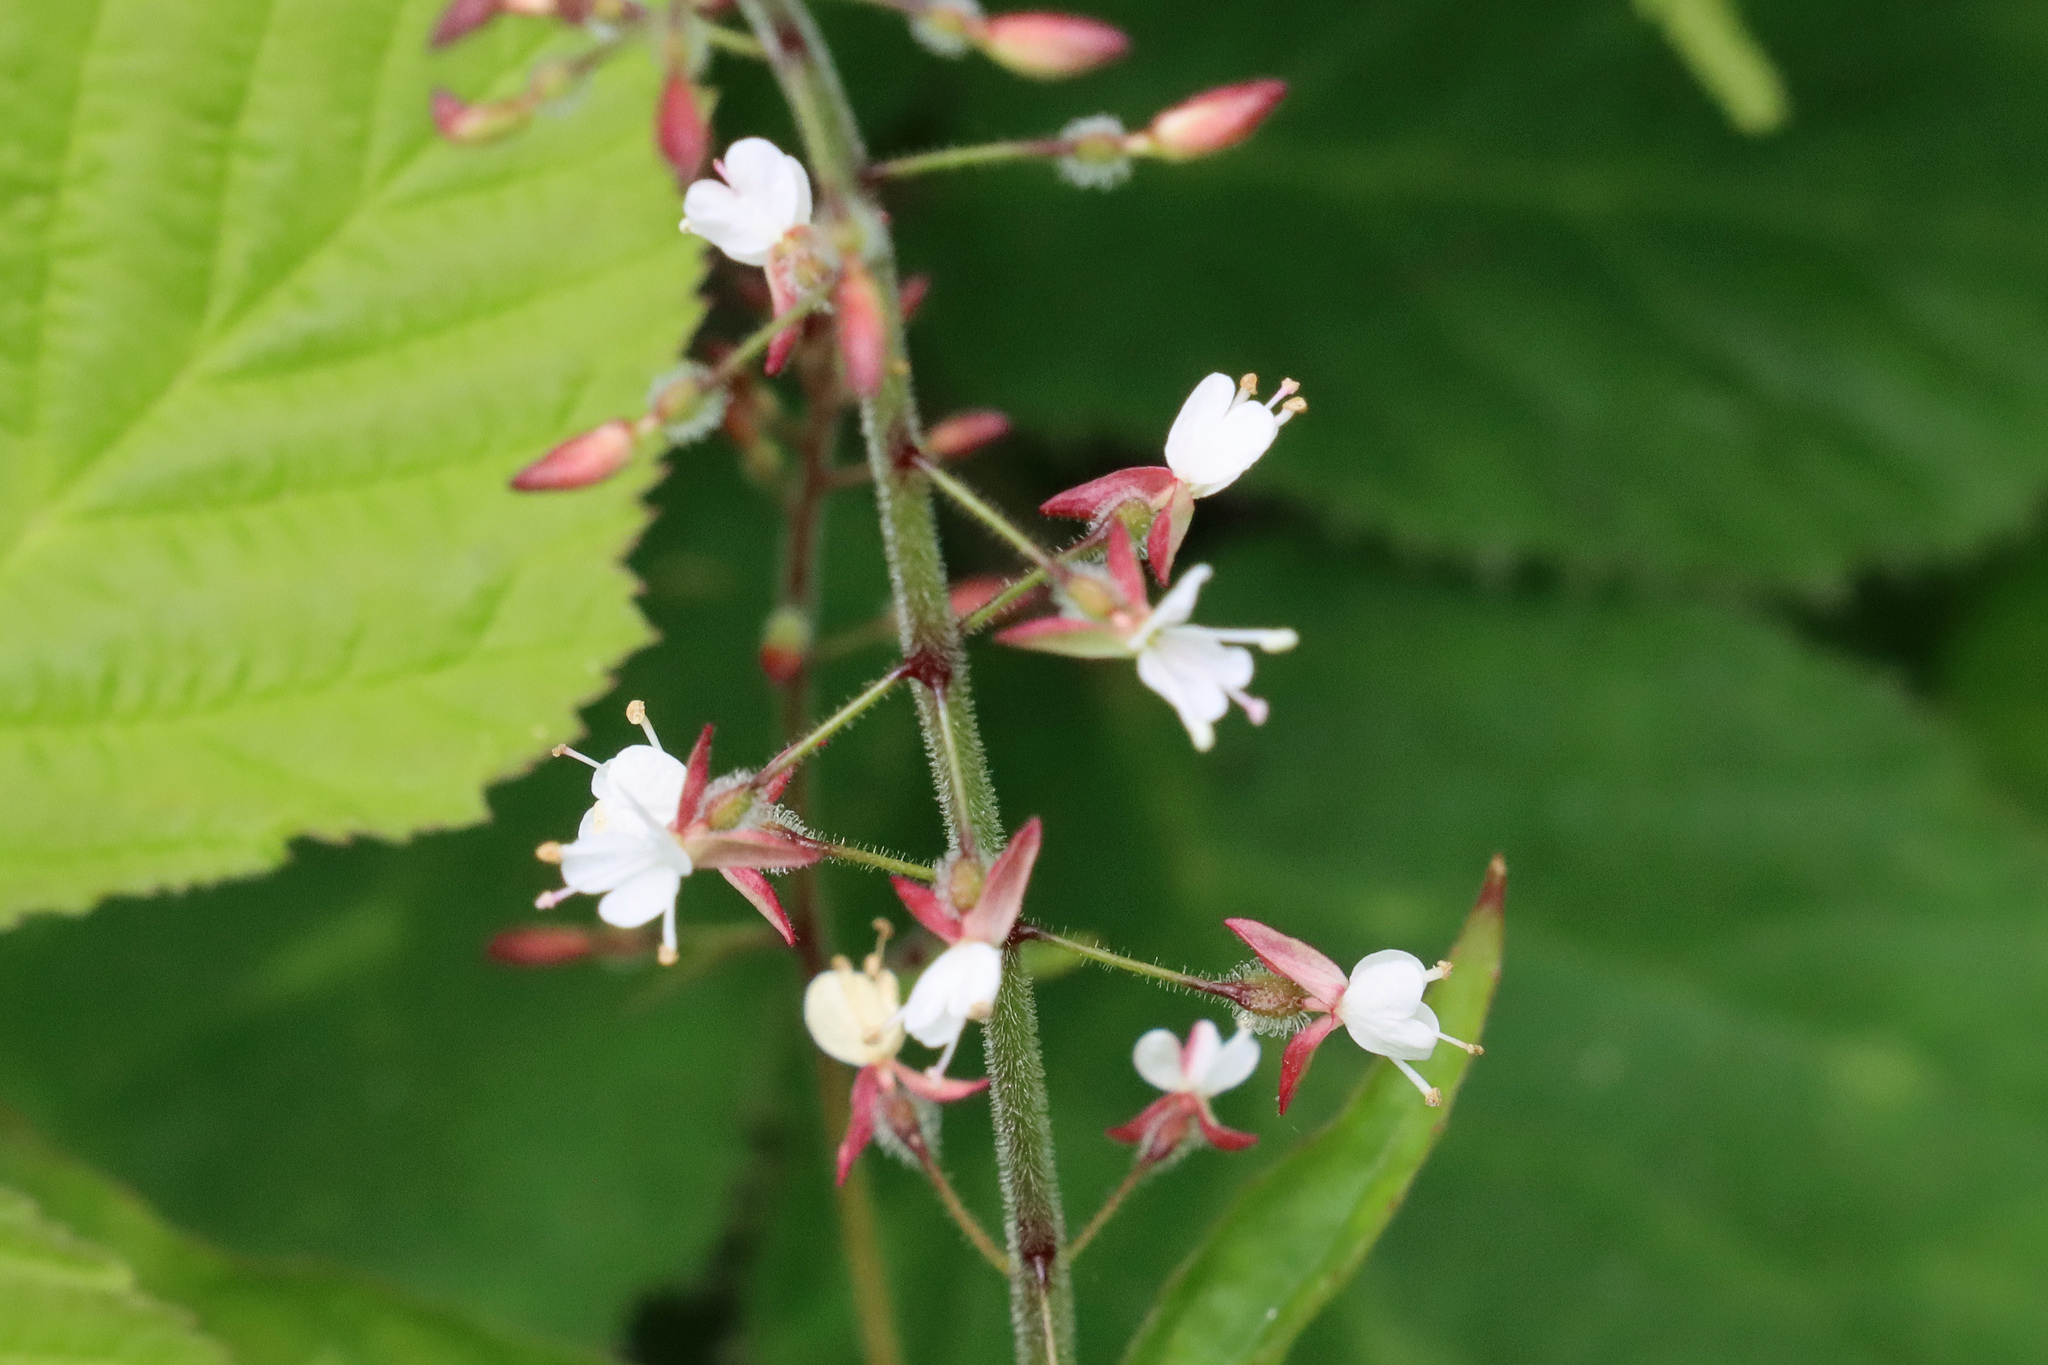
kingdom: Plantae
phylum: Tracheophyta
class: Magnoliopsida
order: Myrtales
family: Onagraceae
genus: Circaea
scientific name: Circaea lutetiana
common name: Enchanter's-nightshade
